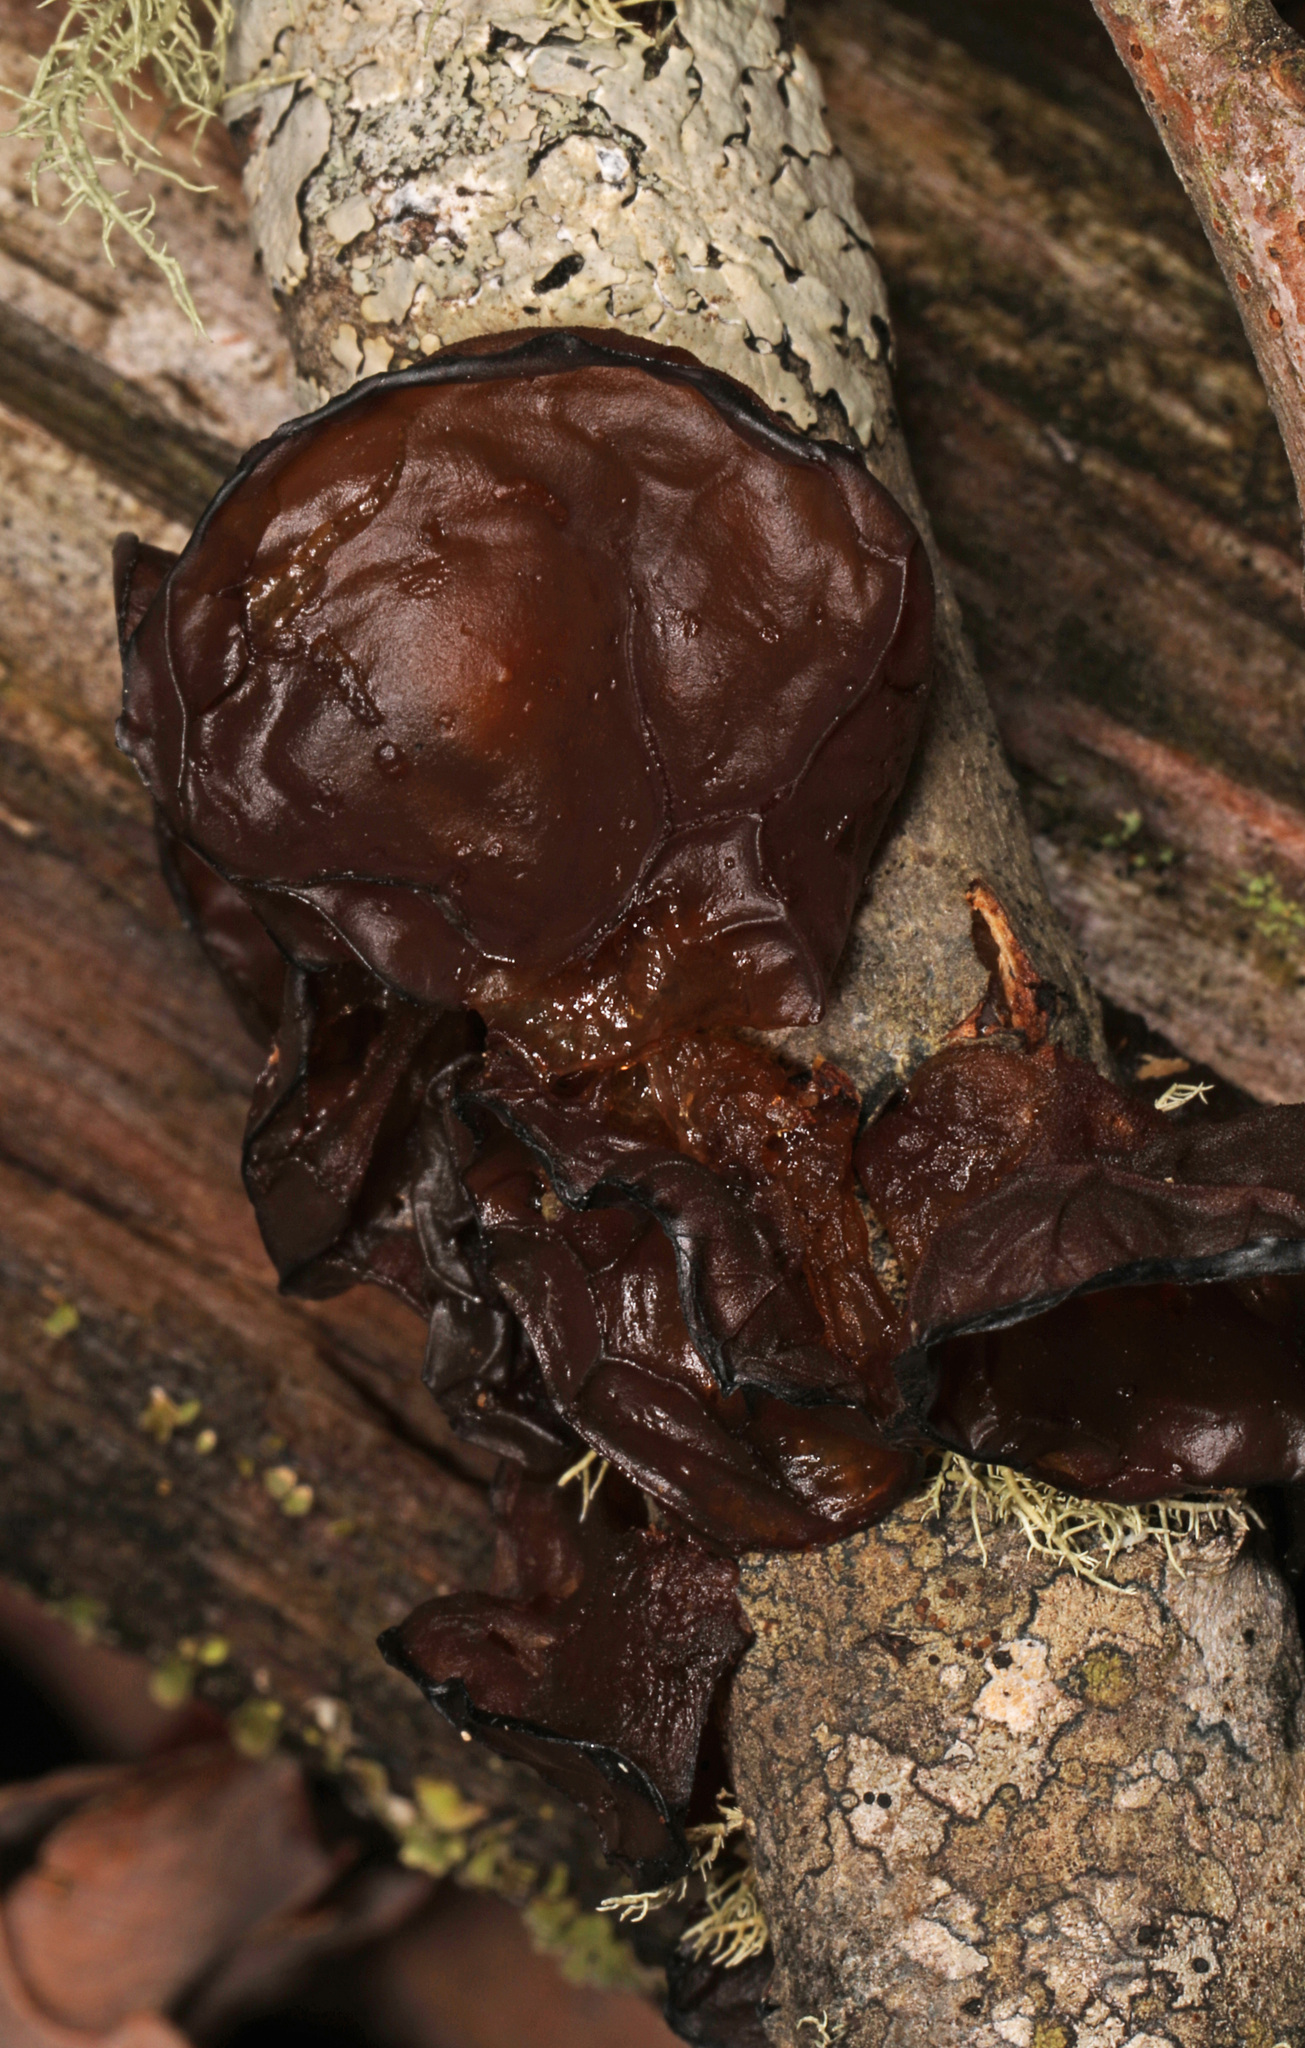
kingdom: Fungi
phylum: Basidiomycota
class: Agaricomycetes
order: Auriculariales
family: Auriculariaceae
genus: Exidia
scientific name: Exidia recisa
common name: Amber jelly
